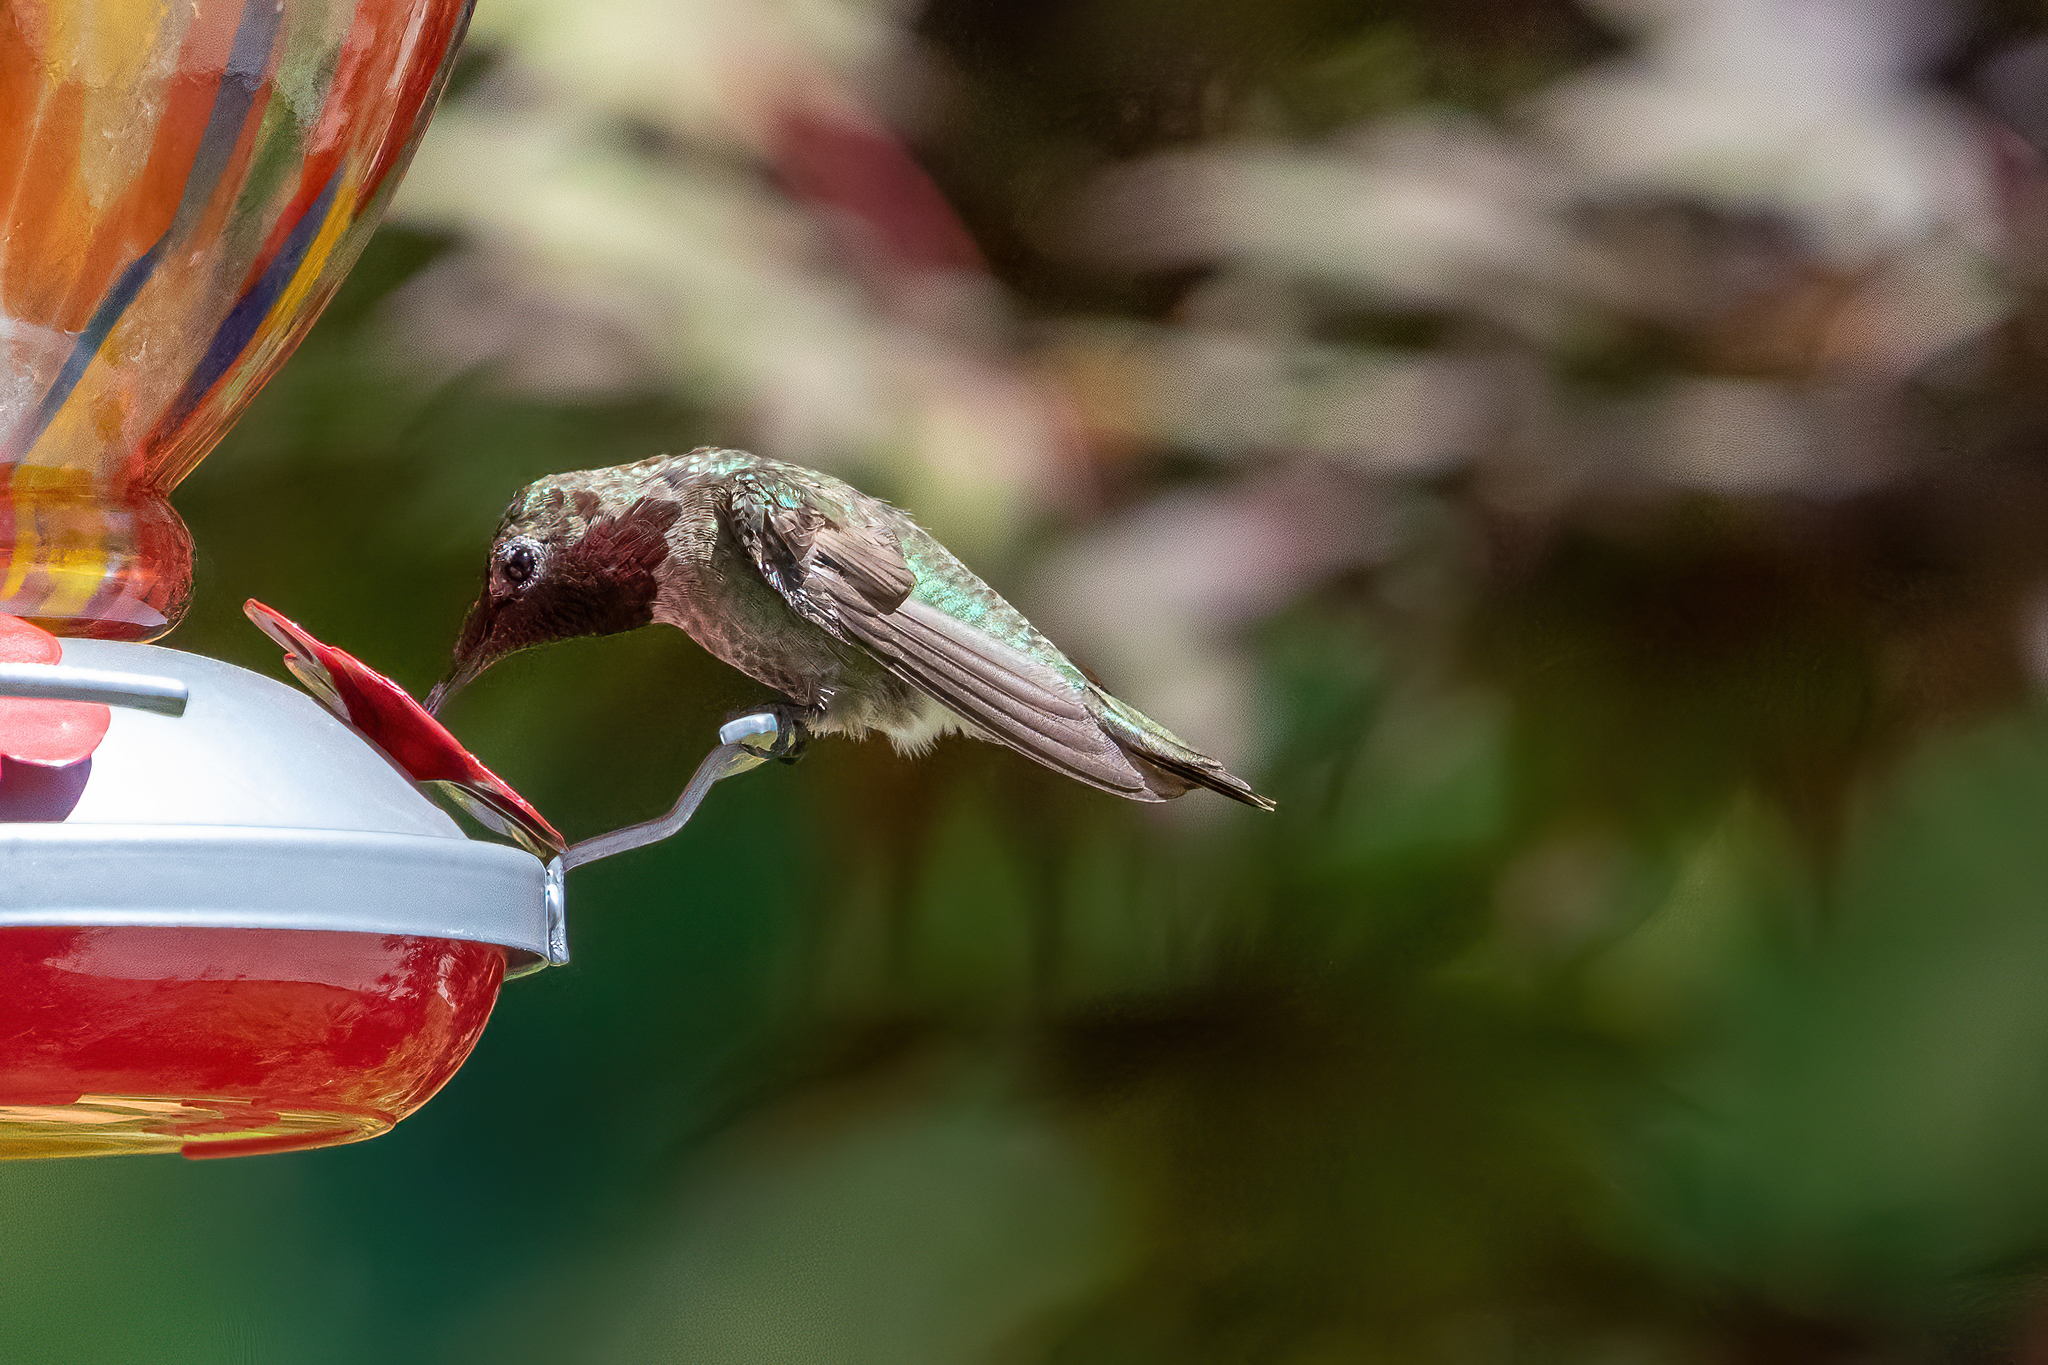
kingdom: Animalia
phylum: Chordata
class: Aves
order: Apodiformes
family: Trochilidae
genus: Calypte
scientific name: Calypte anna
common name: Anna's hummingbird
